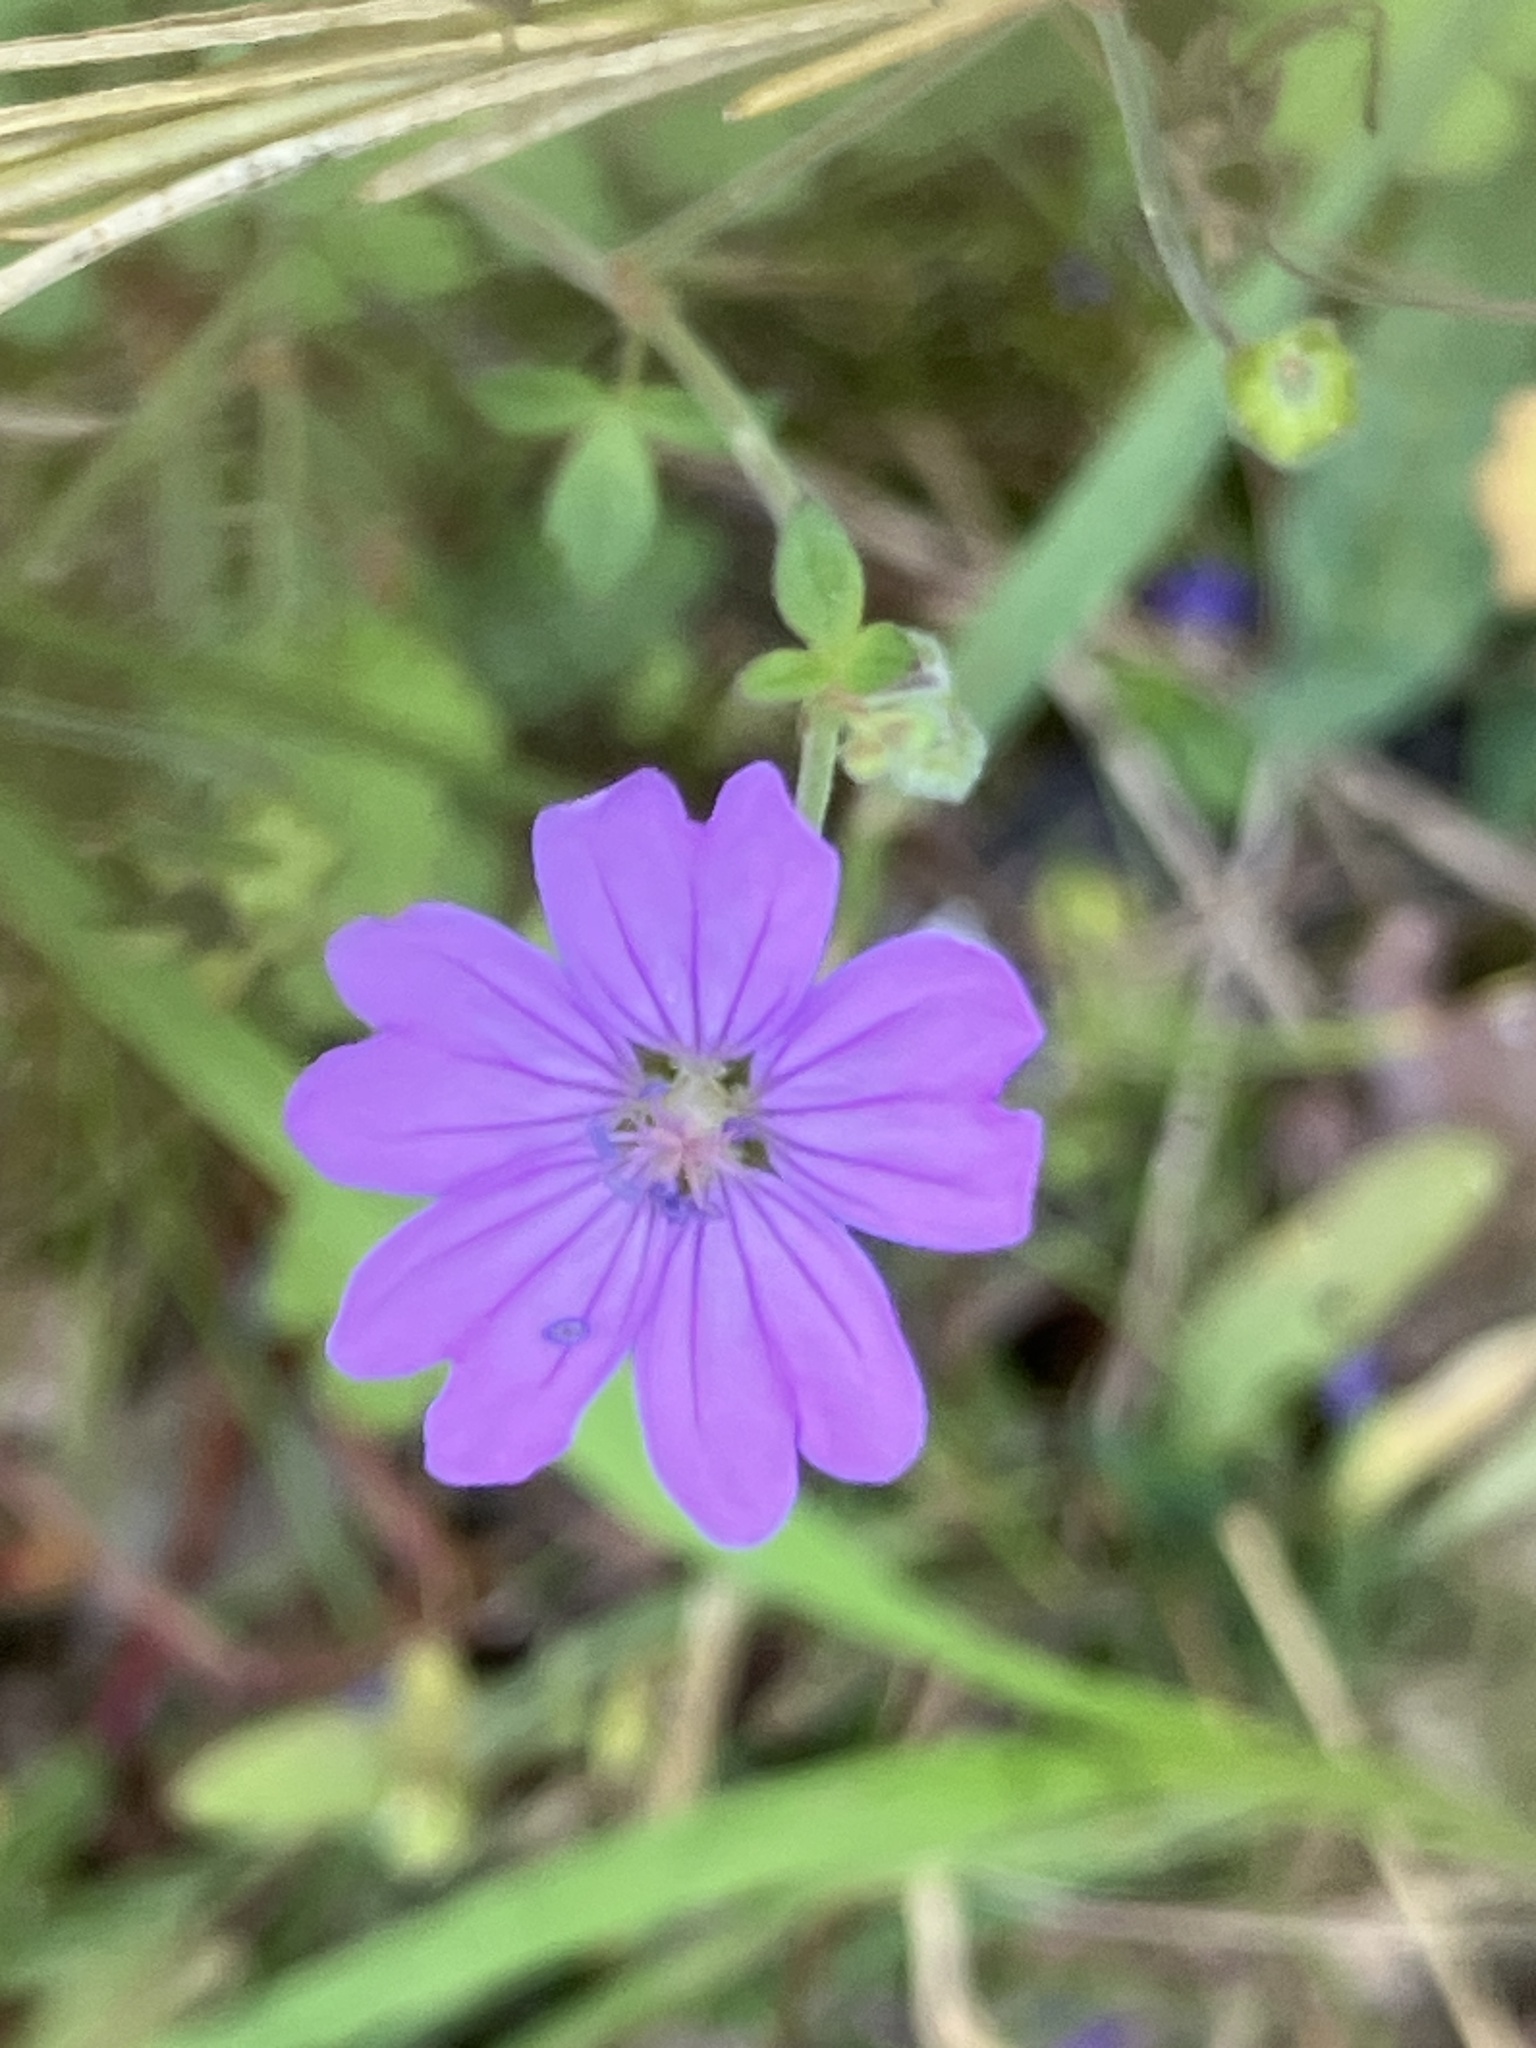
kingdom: Plantae
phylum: Tracheophyta
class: Magnoliopsida
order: Geraniales
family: Geraniaceae
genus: Geranium
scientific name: Geranium pyrenaicum
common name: Hedgerow crane's-bill
